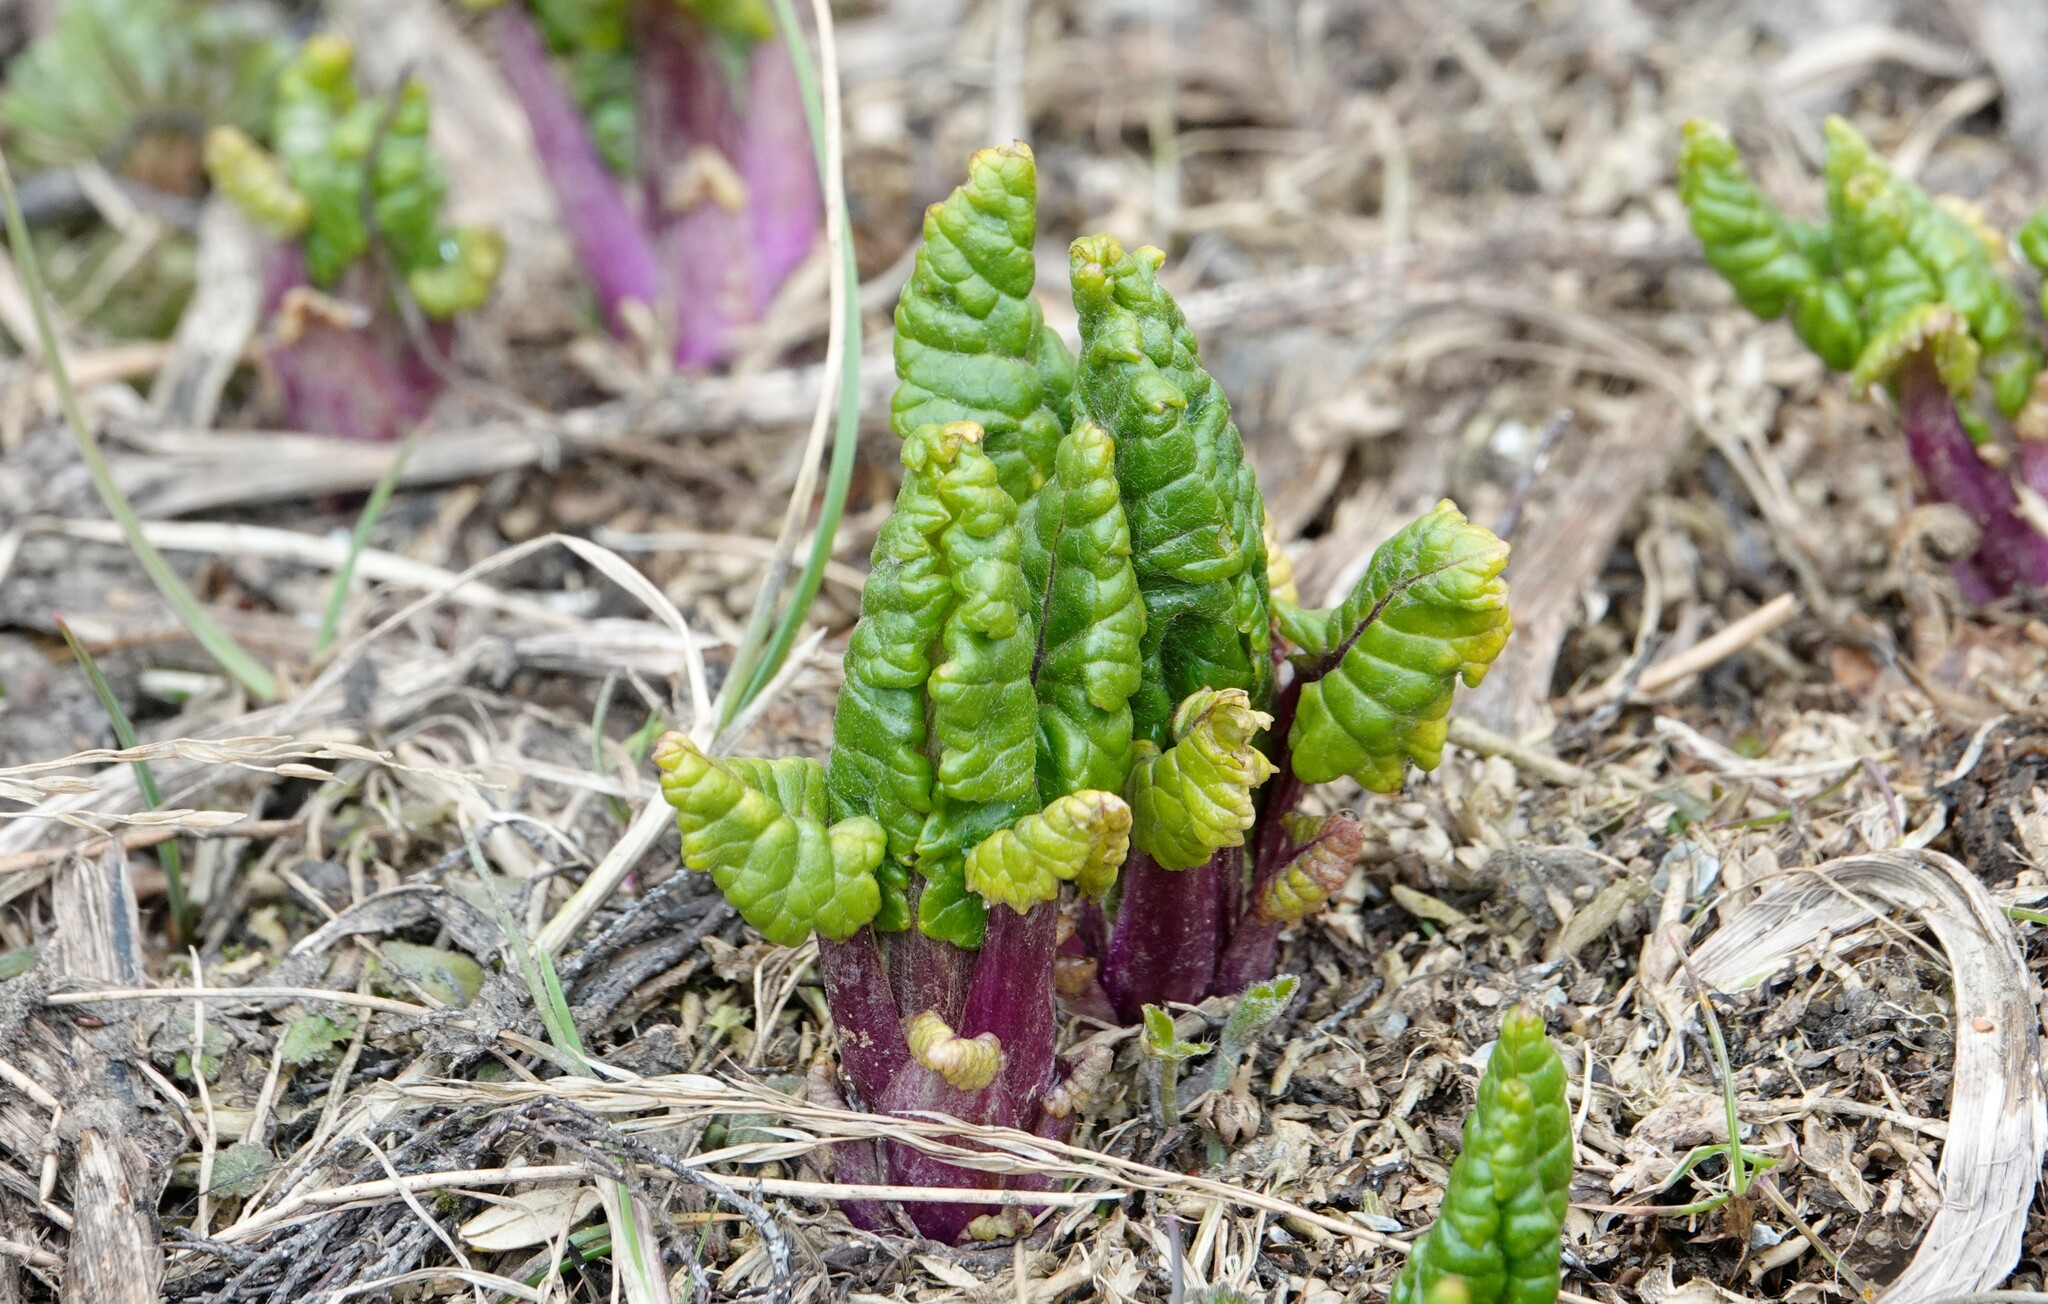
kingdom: Plantae
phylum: Tracheophyta
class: Magnoliopsida
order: Asterales
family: Asteraceae
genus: Iocenes
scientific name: Iocenes virens
